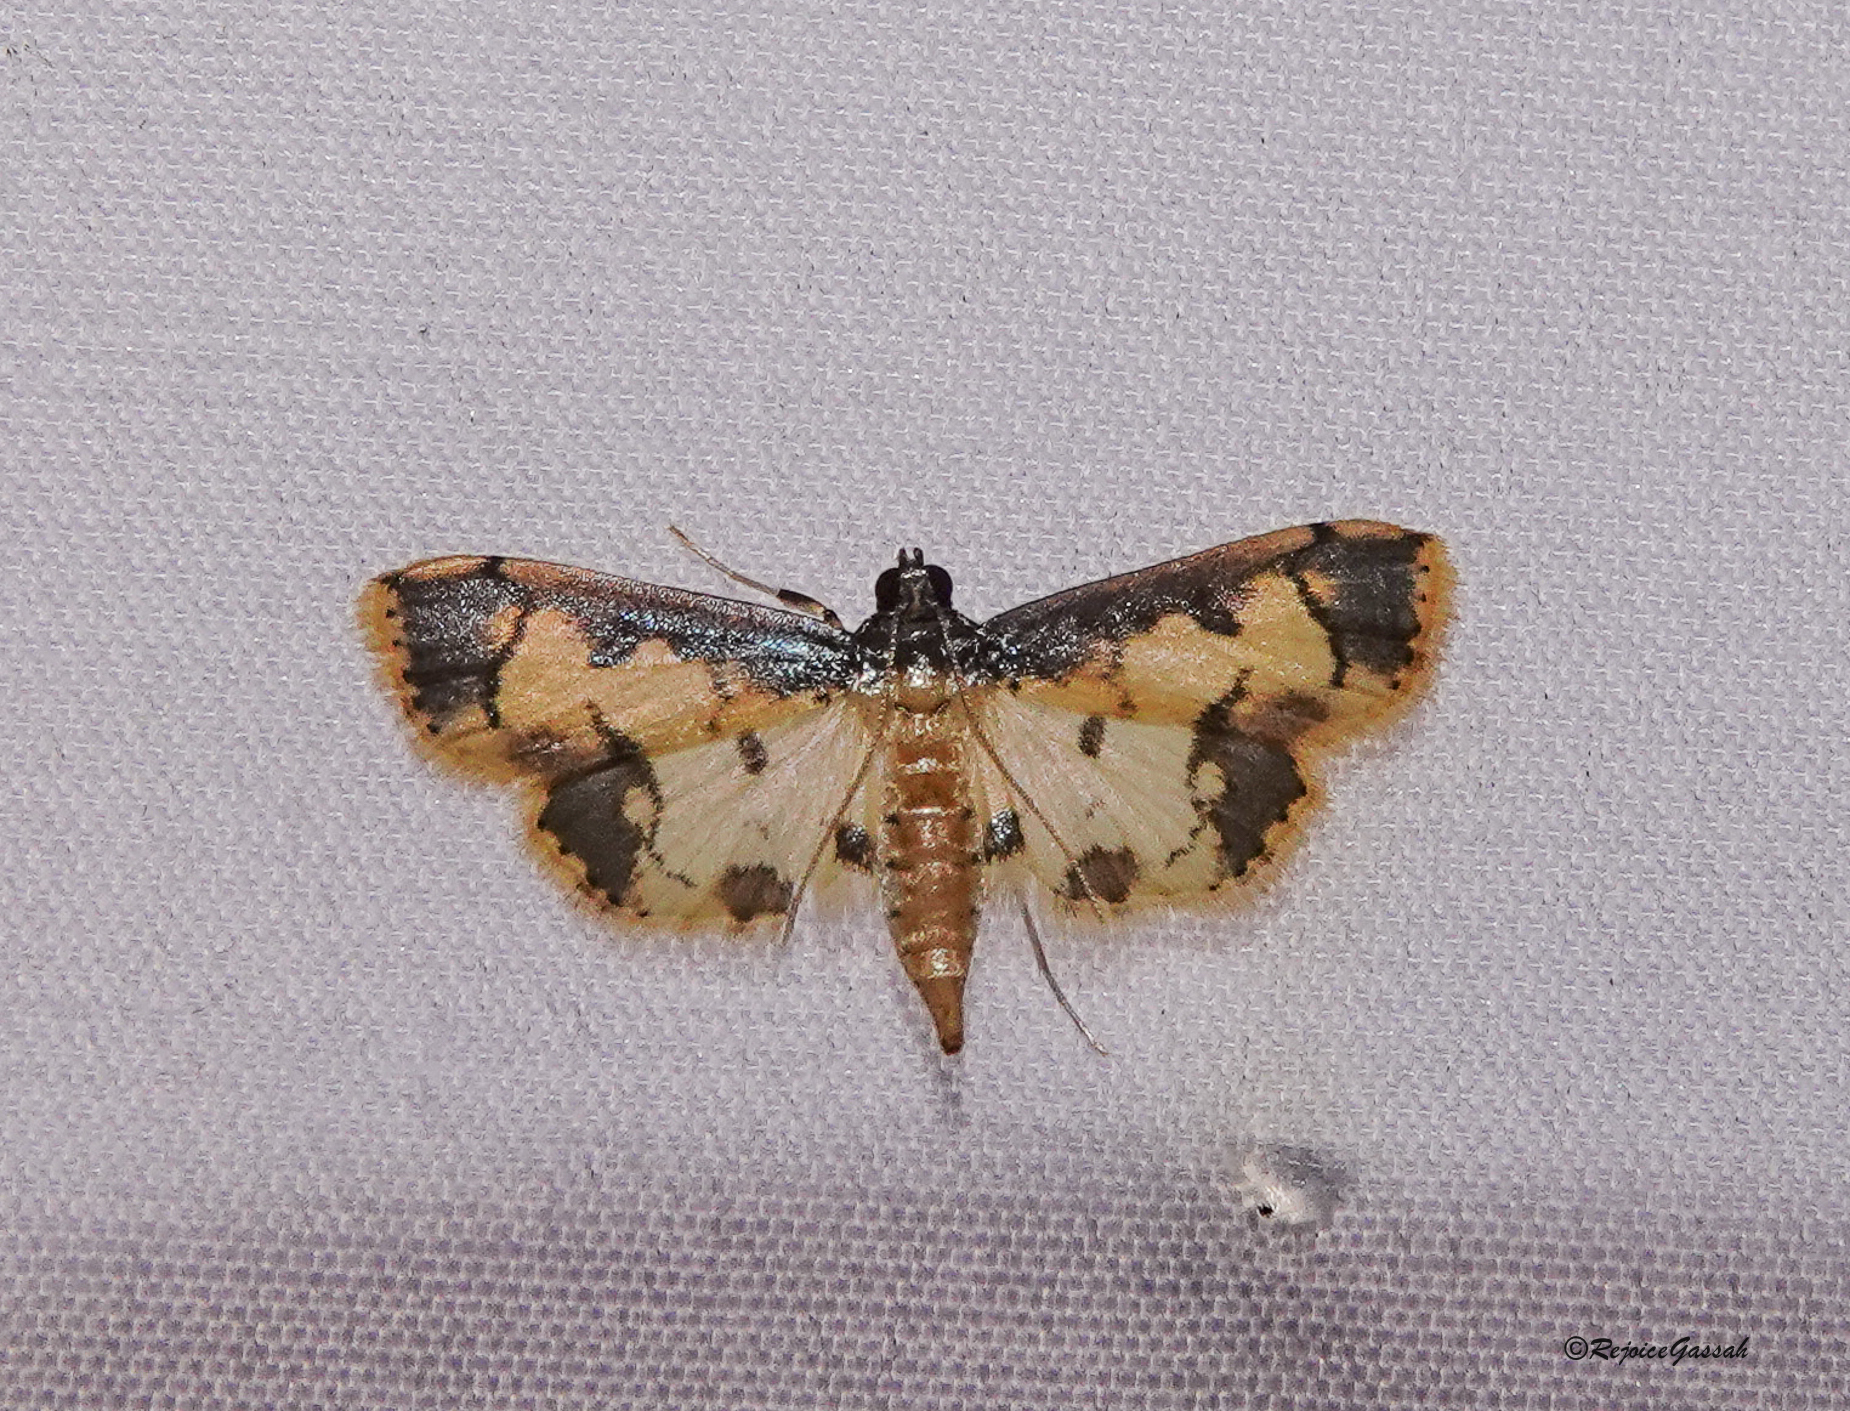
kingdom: Animalia
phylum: Arthropoda
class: Insecta
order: Lepidoptera
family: Crambidae
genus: Agrotera
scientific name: Agrotera
